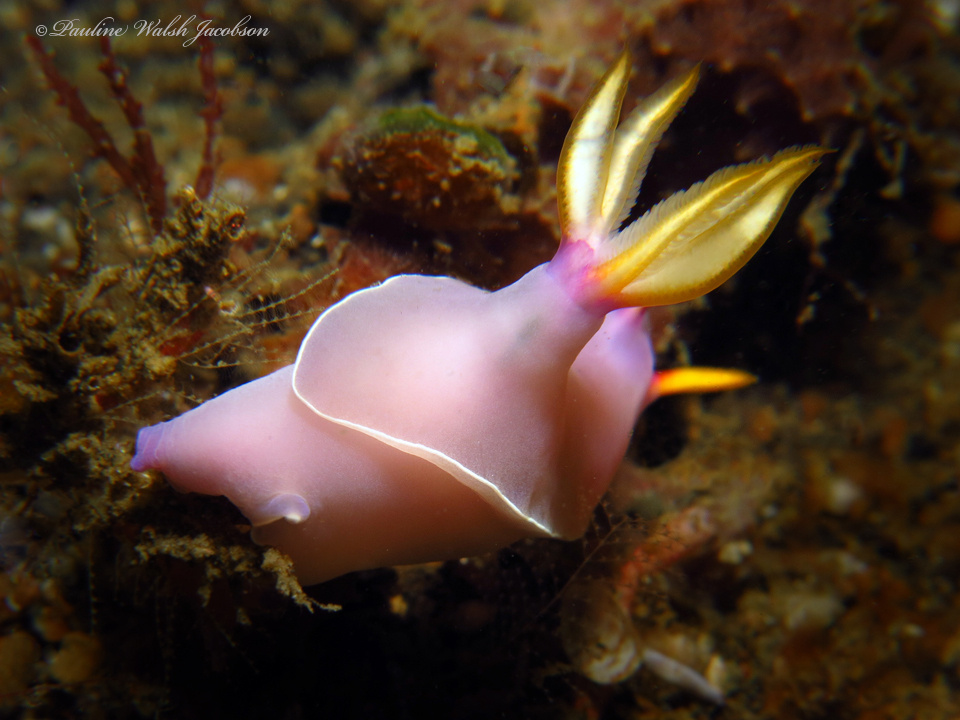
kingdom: Animalia
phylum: Mollusca
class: Gastropoda
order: Nudibranchia
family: Chromodorididae
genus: Hypselodoris
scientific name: Hypselodoris bullockii
